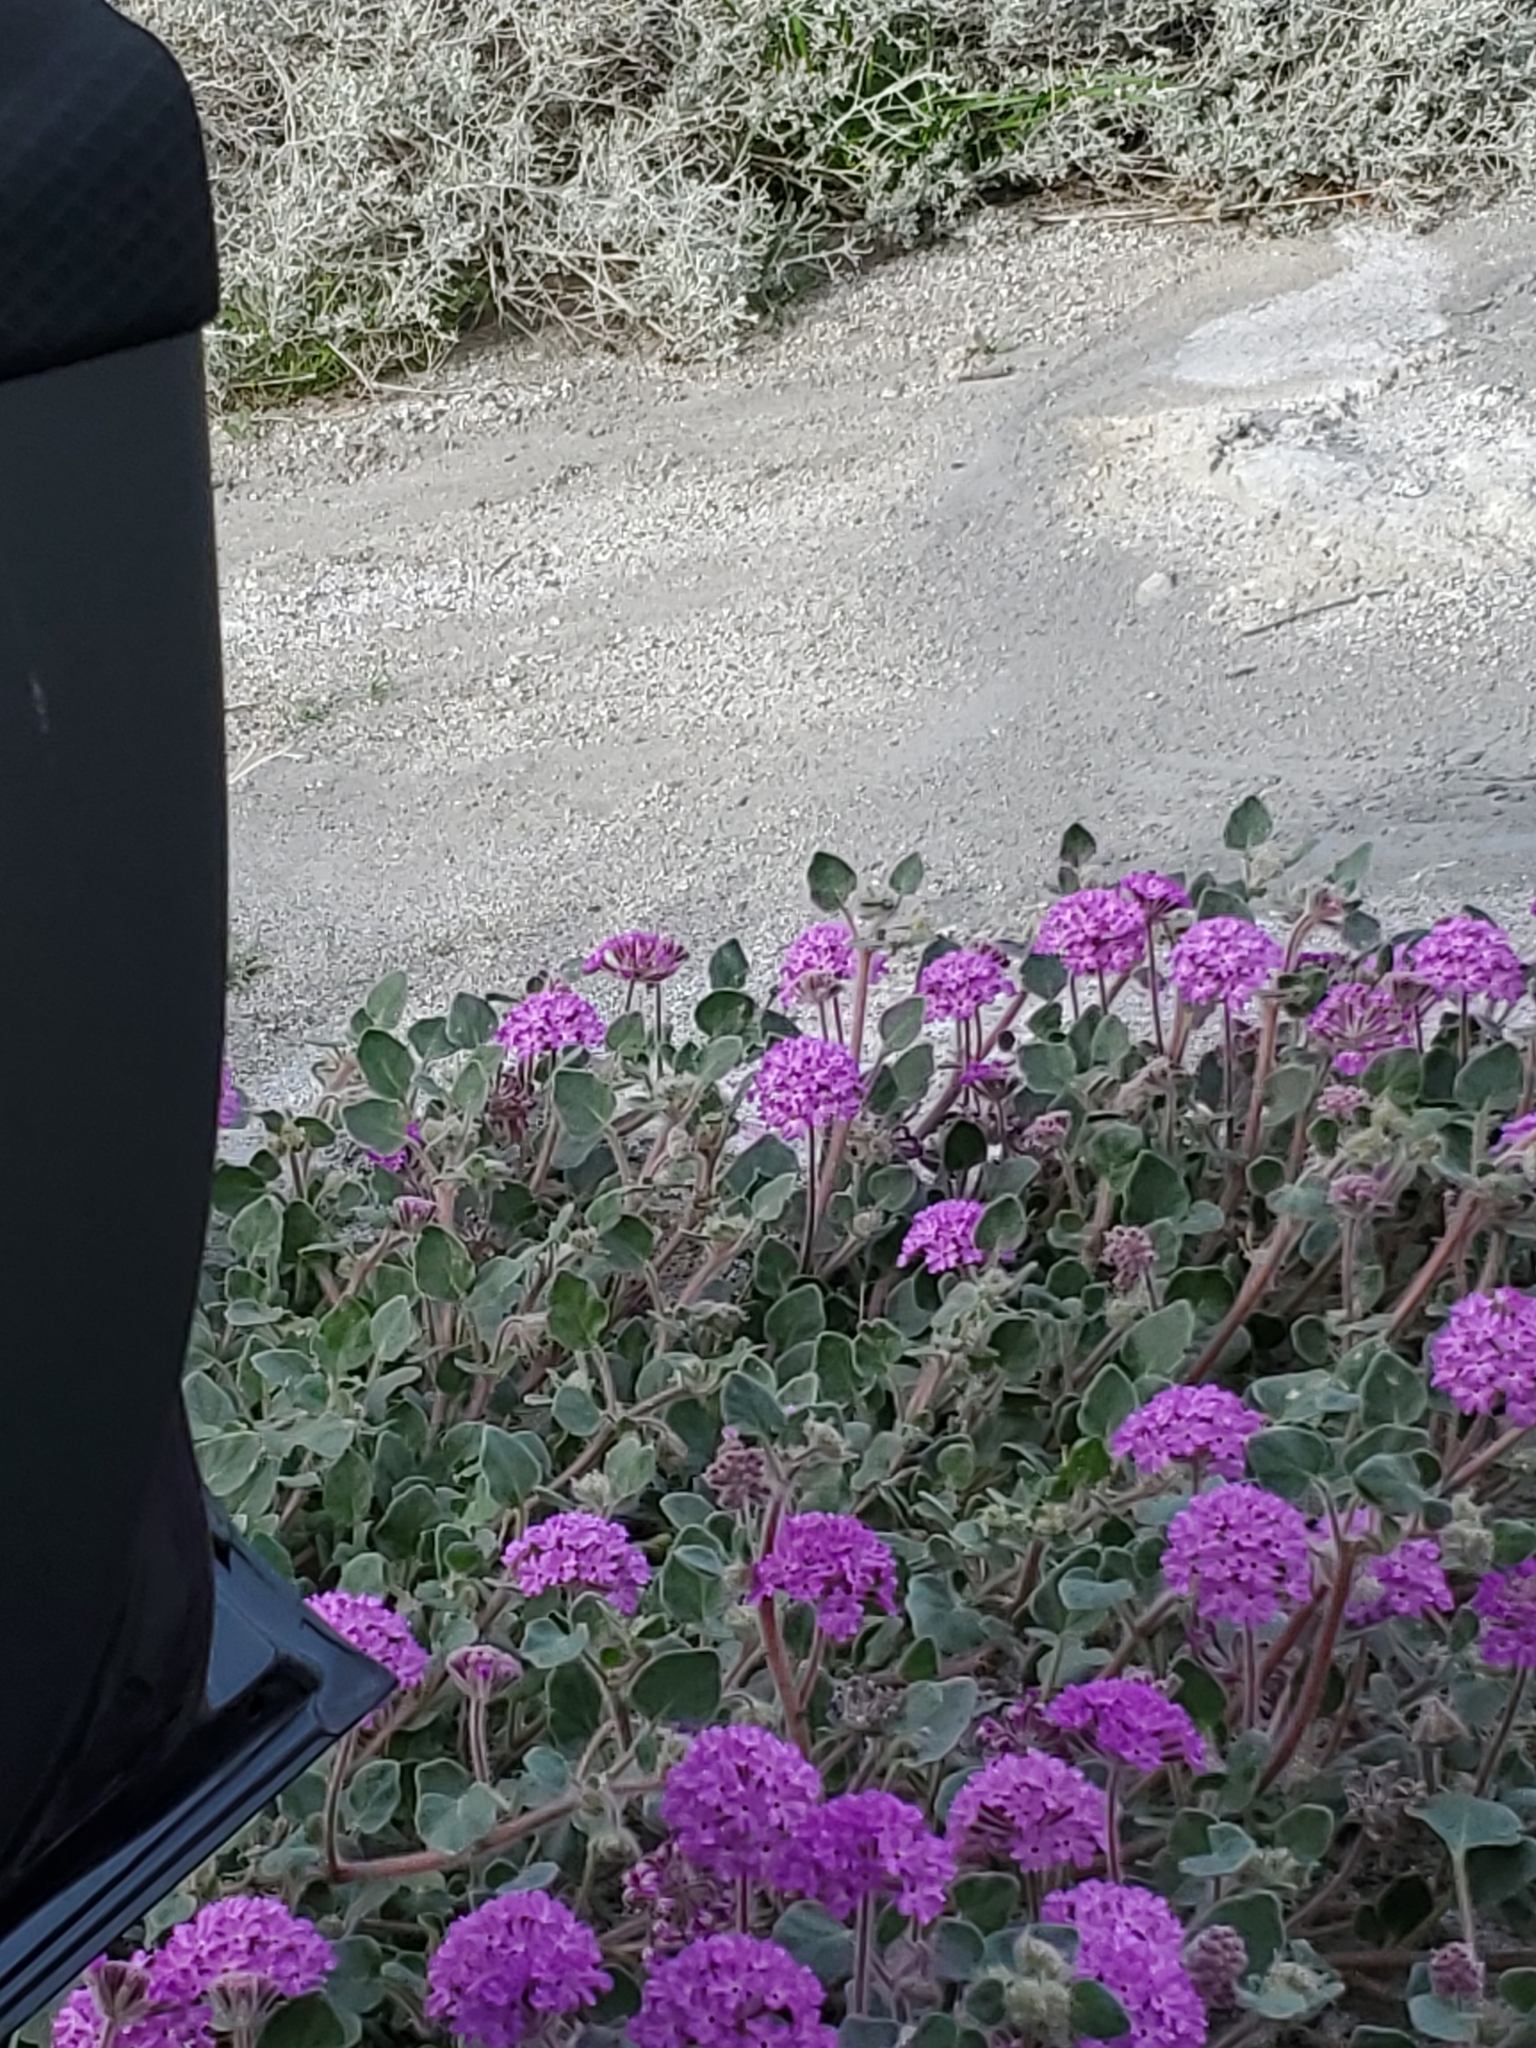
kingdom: Plantae
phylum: Tracheophyta
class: Magnoliopsida
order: Caryophyllales
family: Nyctaginaceae
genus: Abronia
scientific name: Abronia villosa
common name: Desert sand-verbena
